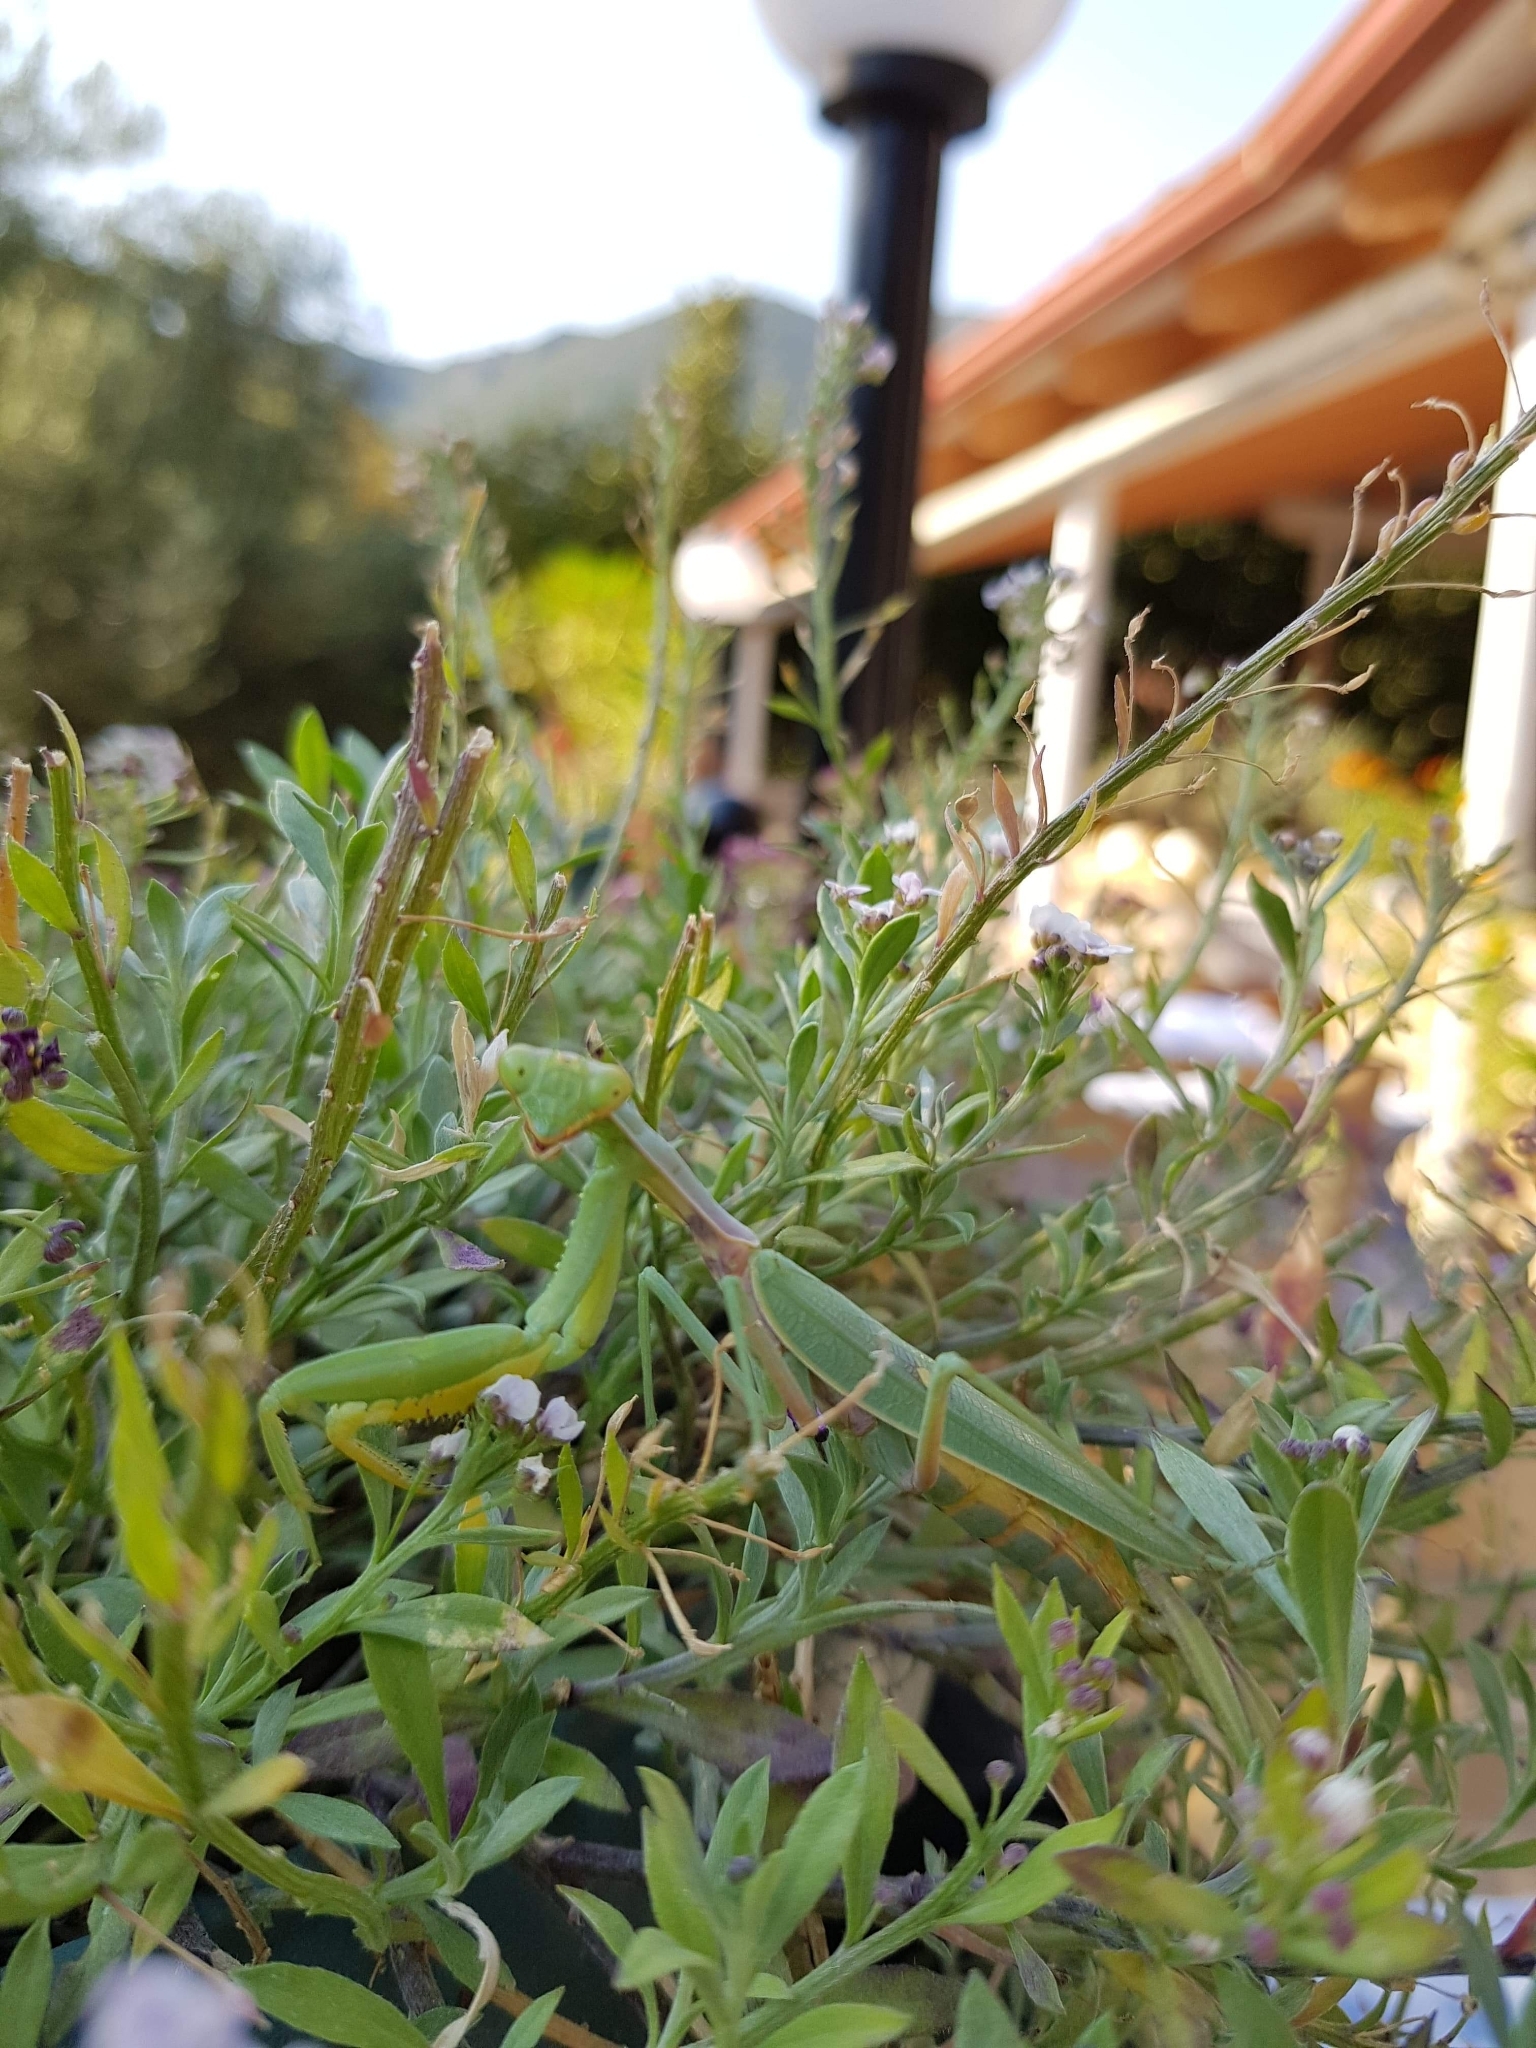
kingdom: Animalia
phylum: Arthropoda
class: Insecta
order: Mantodea
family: Mantidae
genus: Hierodula
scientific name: Hierodula transcaucasica
